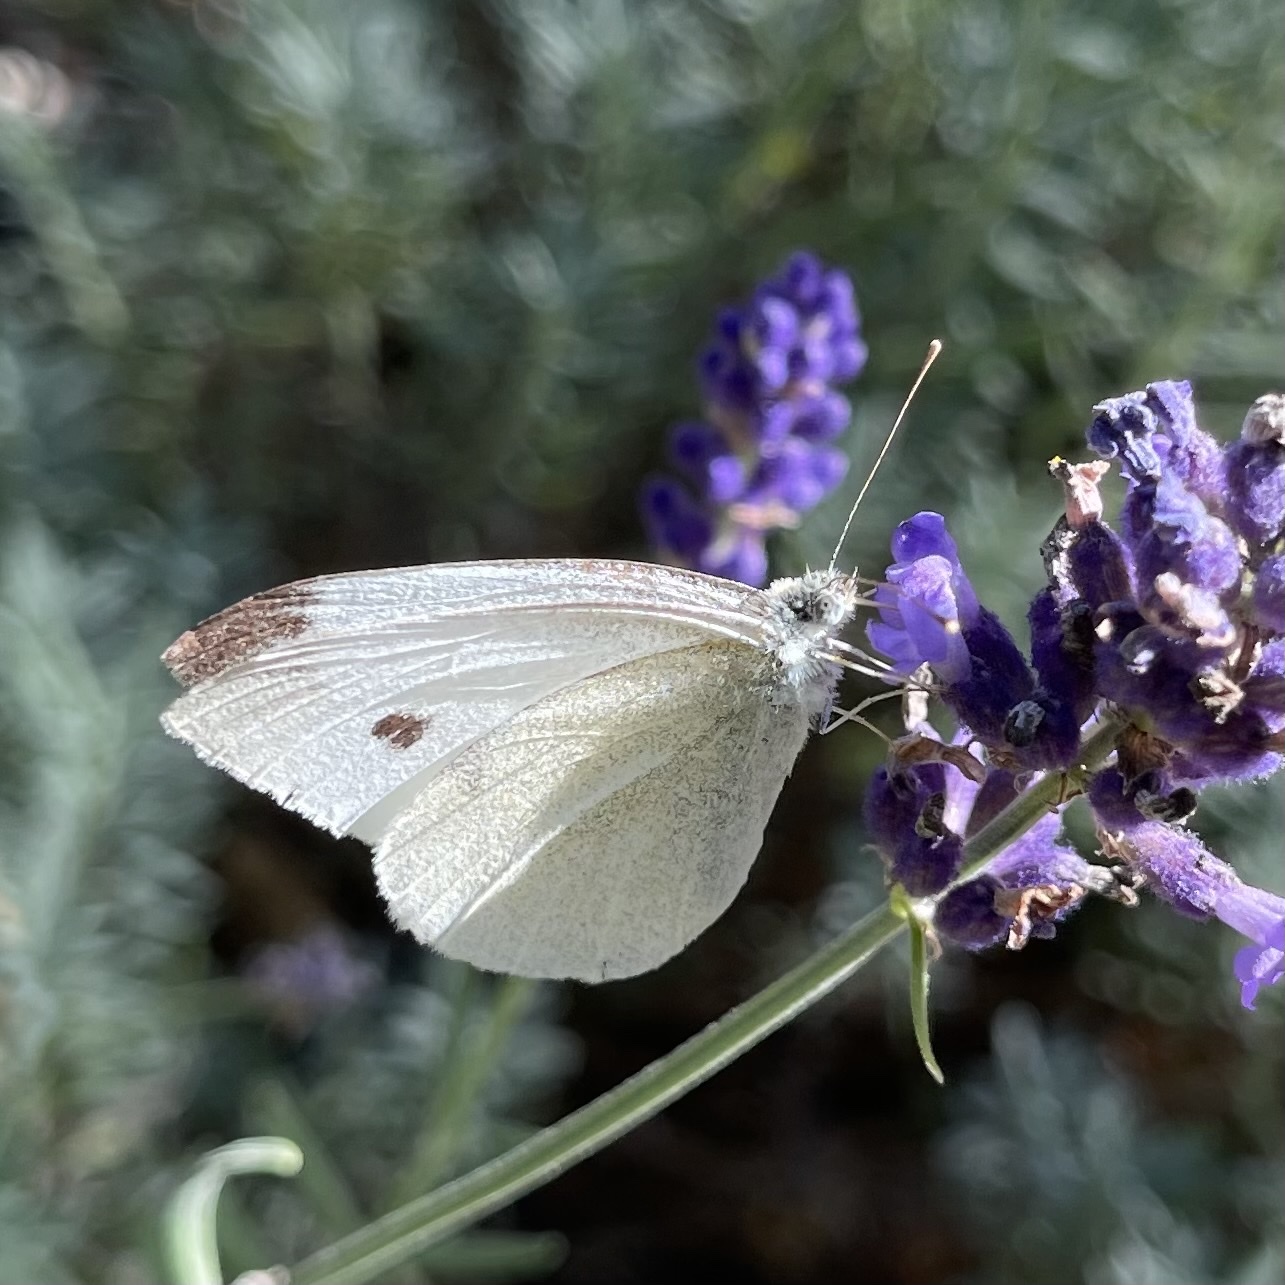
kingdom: Animalia
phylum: Arthropoda
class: Insecta
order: Lepidoptera
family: Pieridae
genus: Pieris
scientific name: Pieris rapae
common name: Small white
